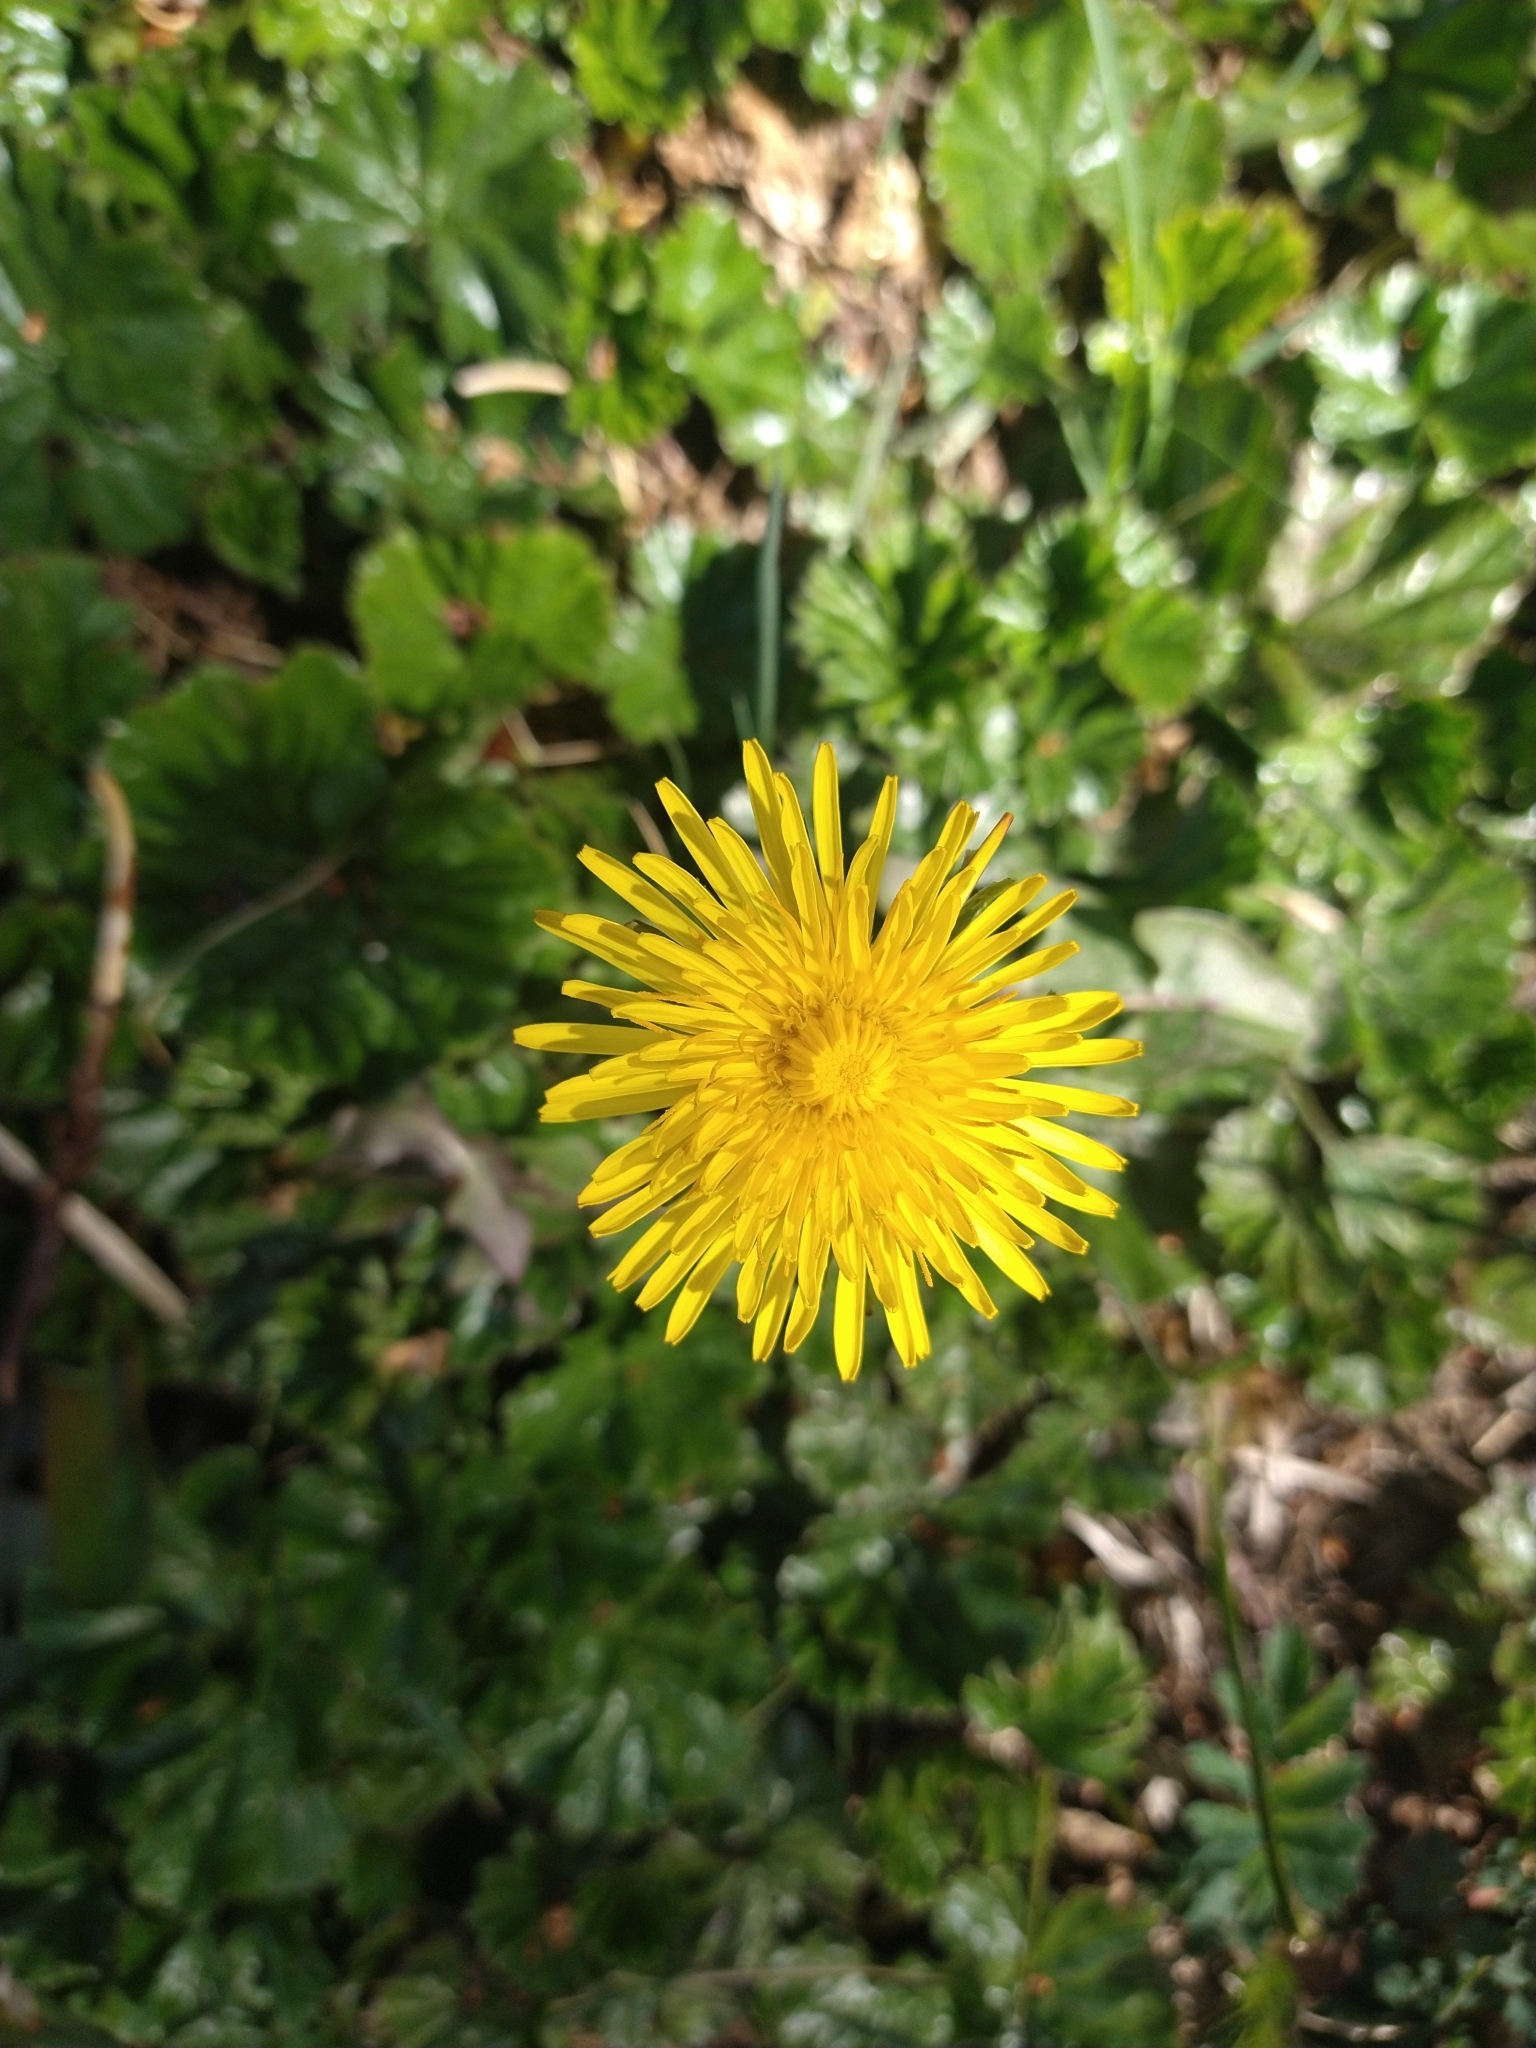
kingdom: Plantae
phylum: Tracheophyta
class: Magnoliopsida
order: Asterales
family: Asteraceae
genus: Taraxacum
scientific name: Taraxacum officinale
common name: Common dandelion
